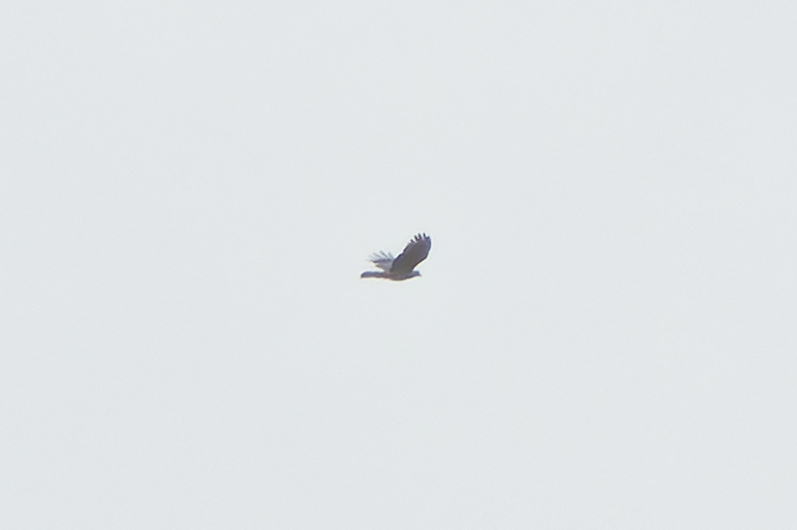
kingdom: Animalia
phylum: Chordata
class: Aves
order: Accipitriformes
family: Accipitridae
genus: Aviceda
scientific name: Aviceda subcristata
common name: Pacific baza
